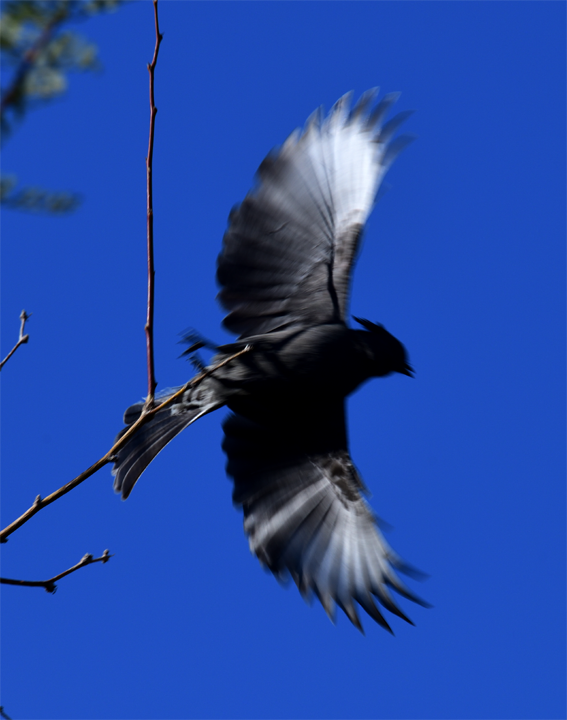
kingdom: Animalia
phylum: Chordata
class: Aves
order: Passeriformes
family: Ptilogonatidae
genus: Phainopepla
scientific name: Phainopepla nitens
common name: Phainopepla
